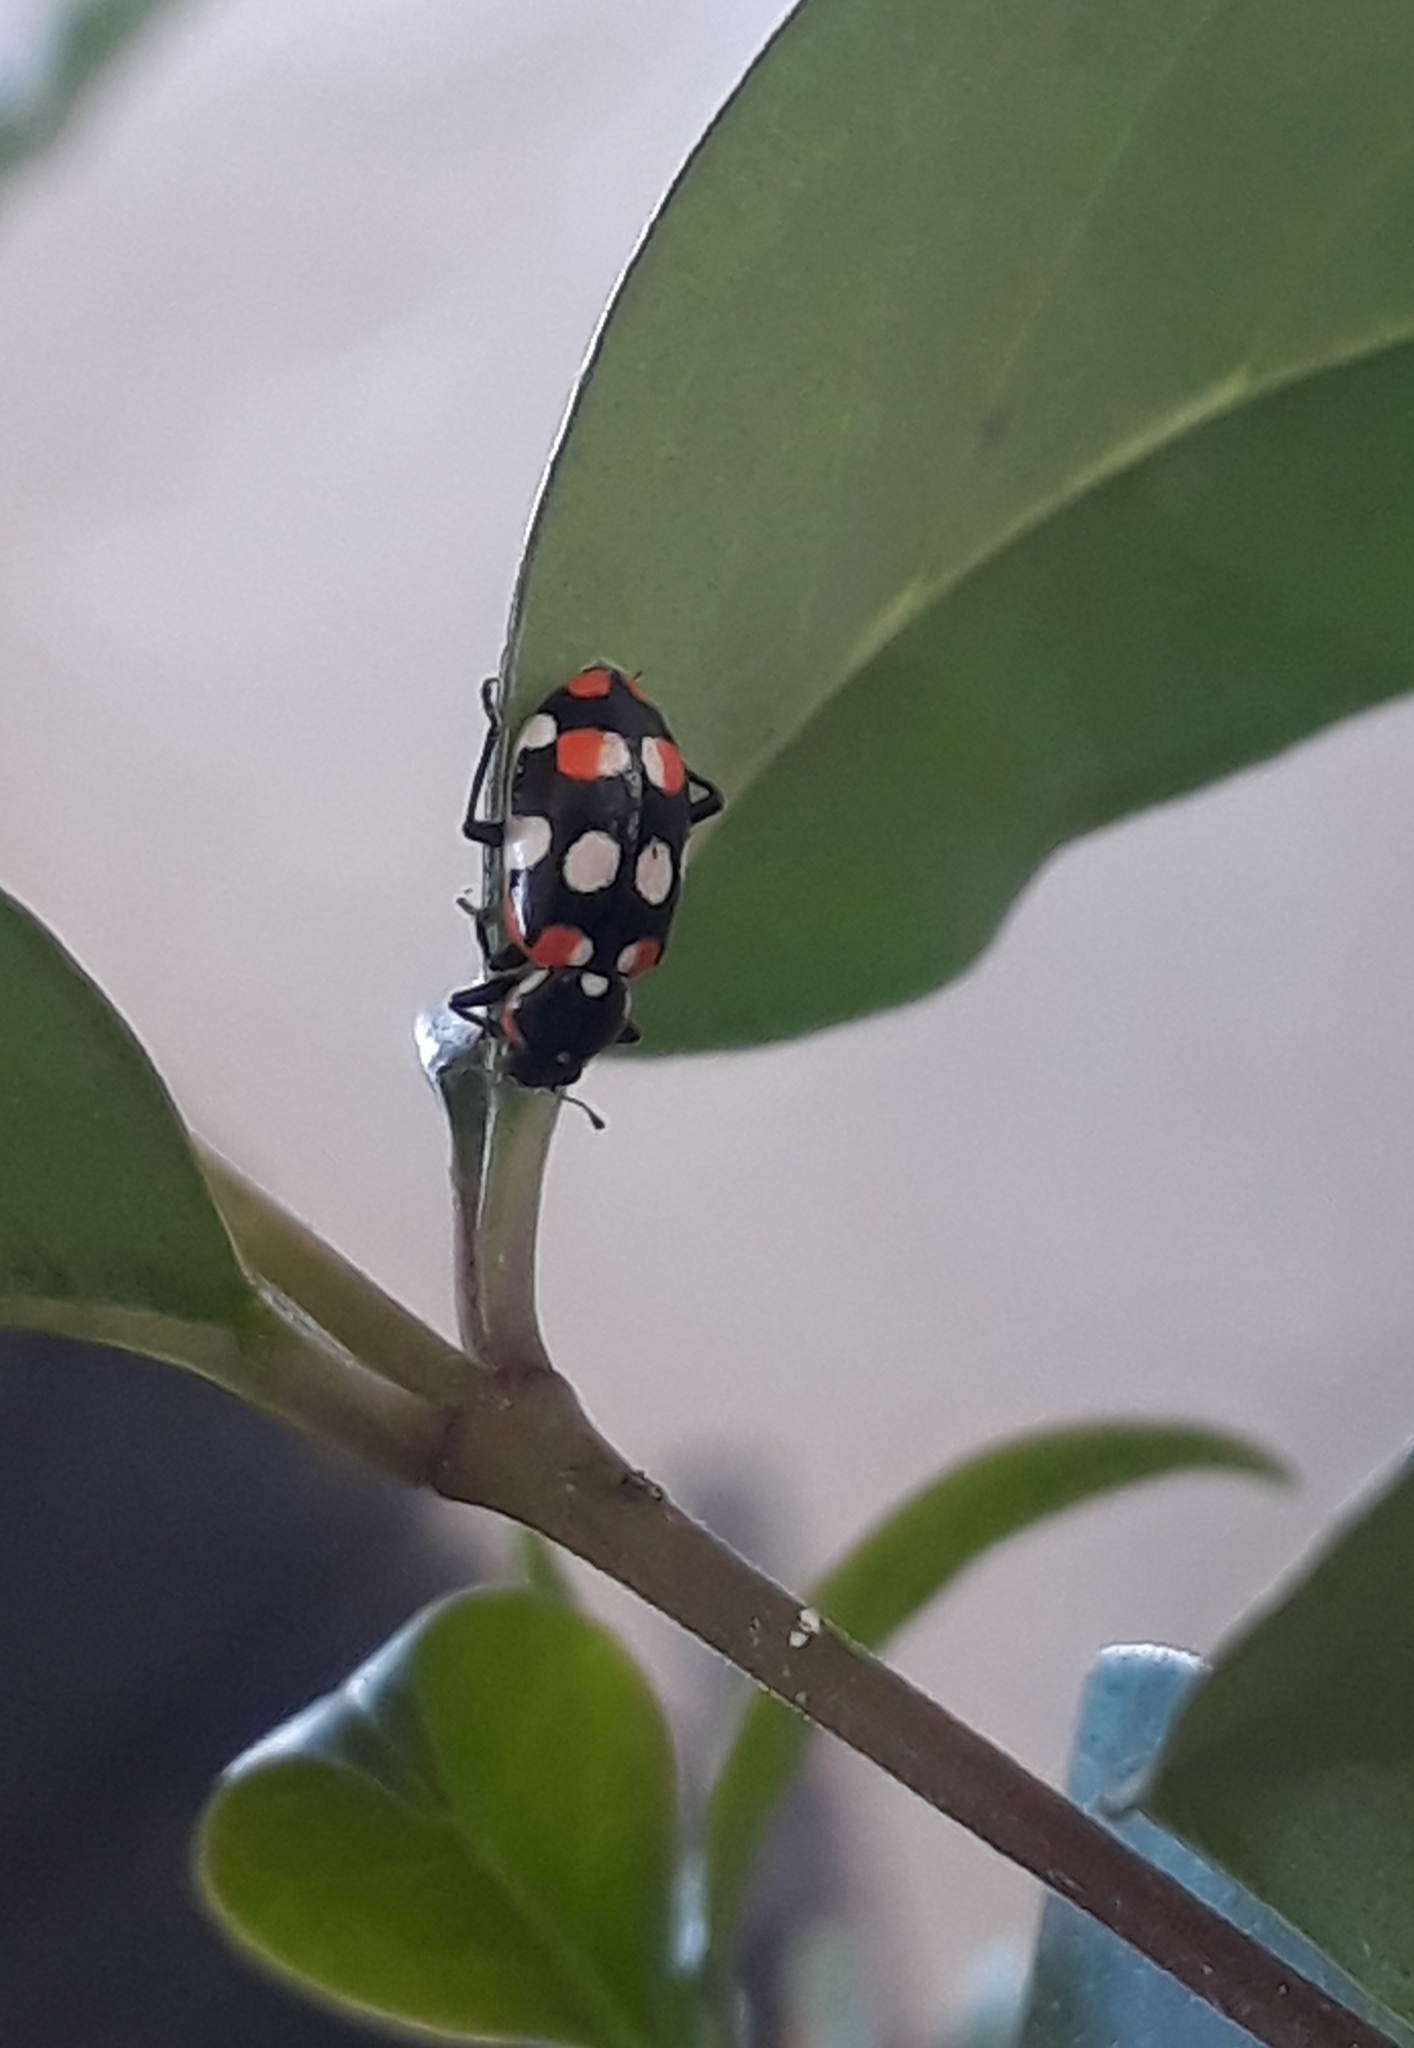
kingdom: Animalia
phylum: Arthropoda
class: Insecta
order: Coleoptera
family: Coccinellidae
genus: Eriopis
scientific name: Eriopis connexa
